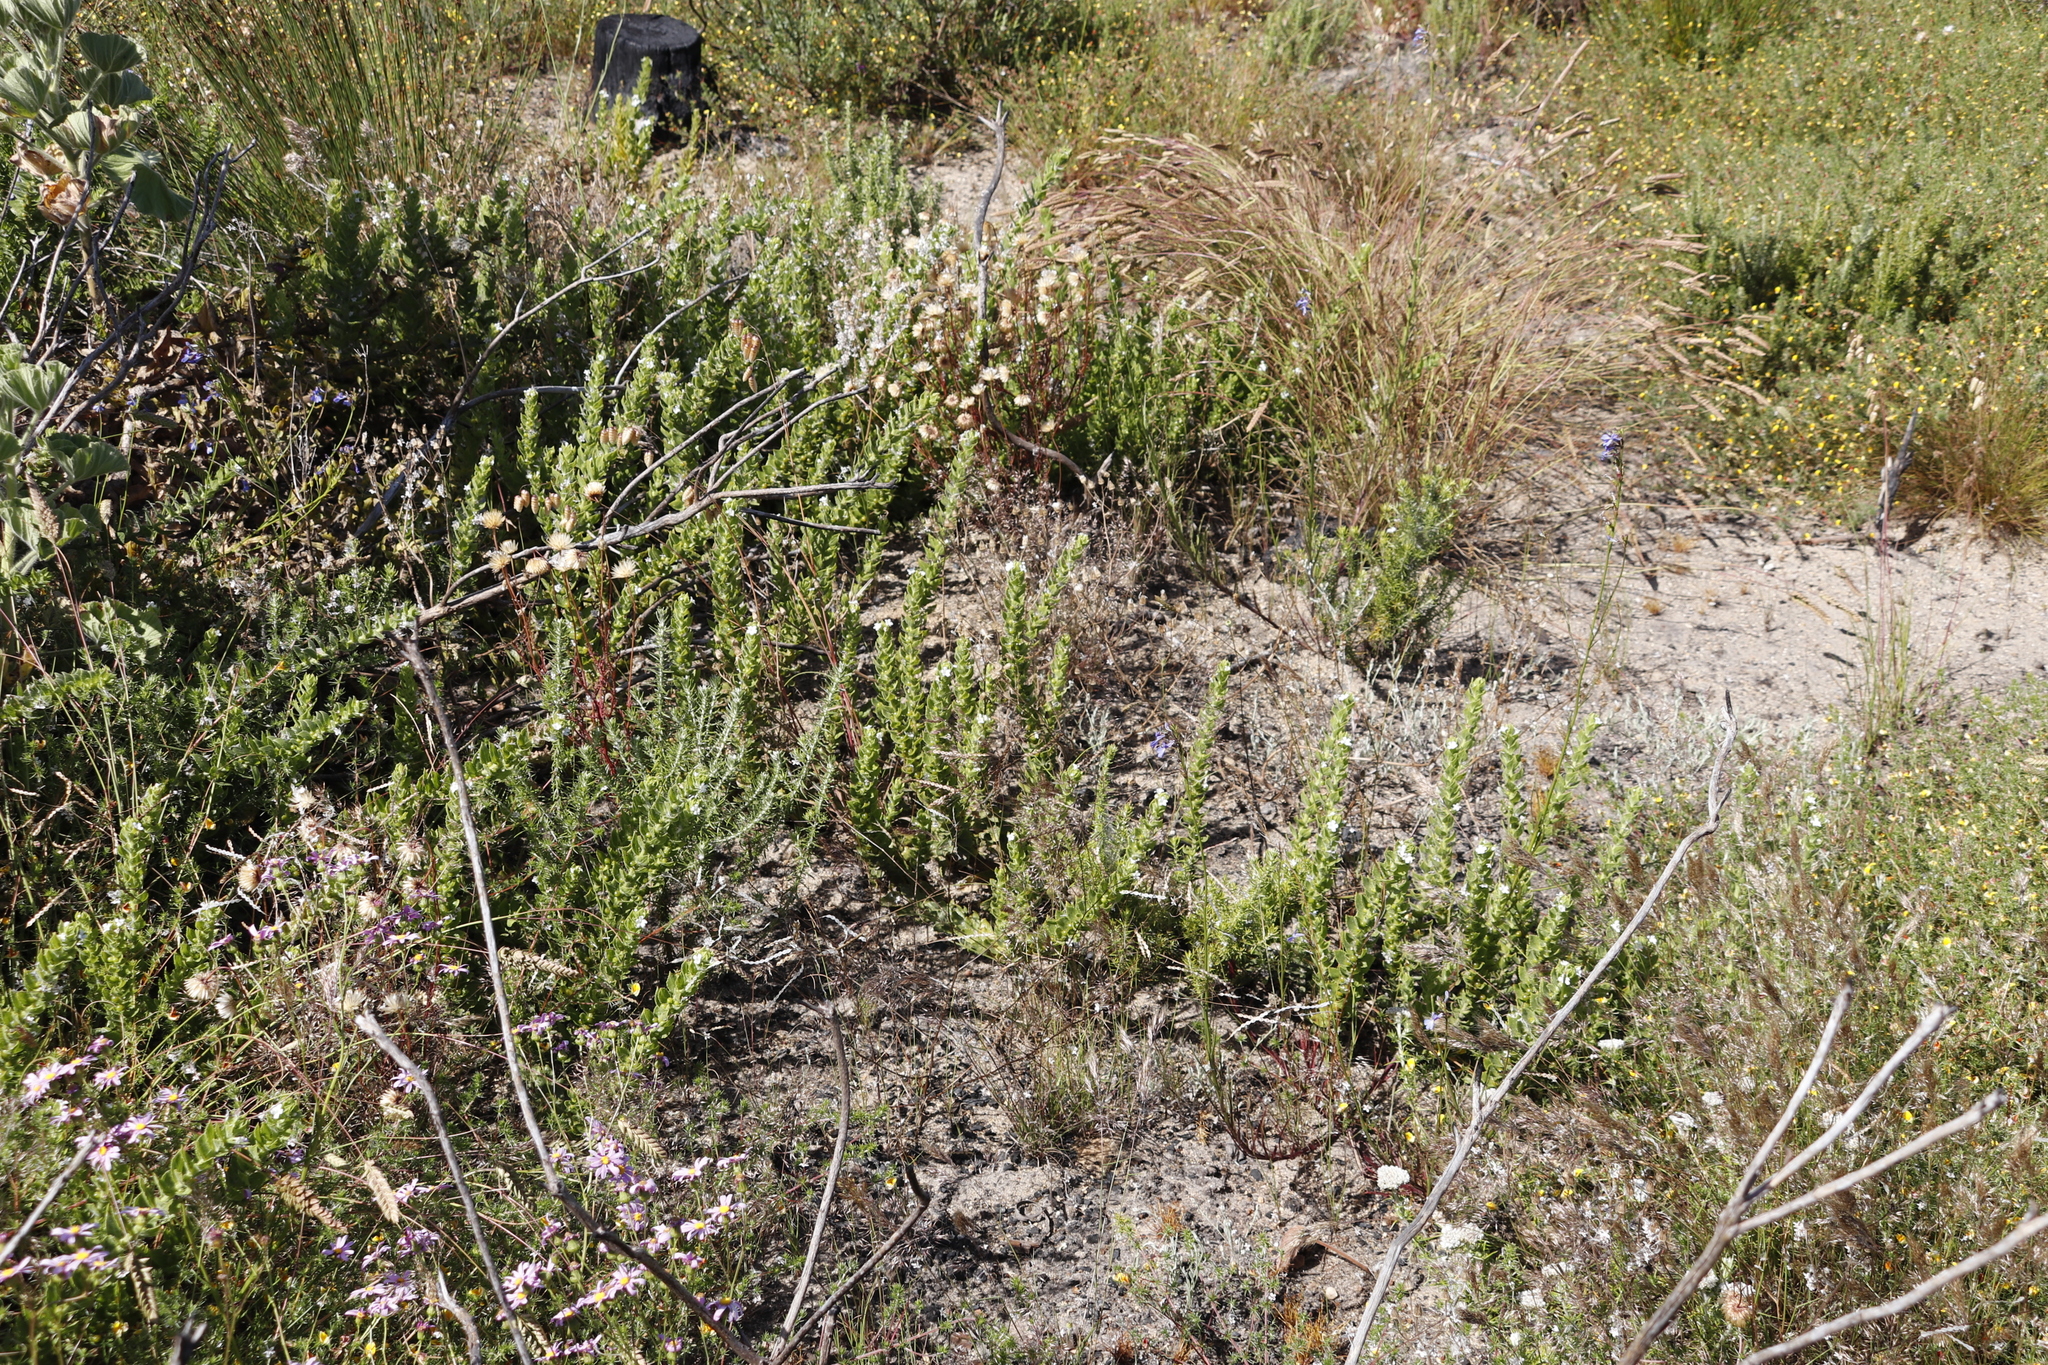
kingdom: Plantae
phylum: Tracheophyta
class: Magnoliopsida
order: Lamiales
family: Scrophulariaceae
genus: Oftia
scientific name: Oftia africana
